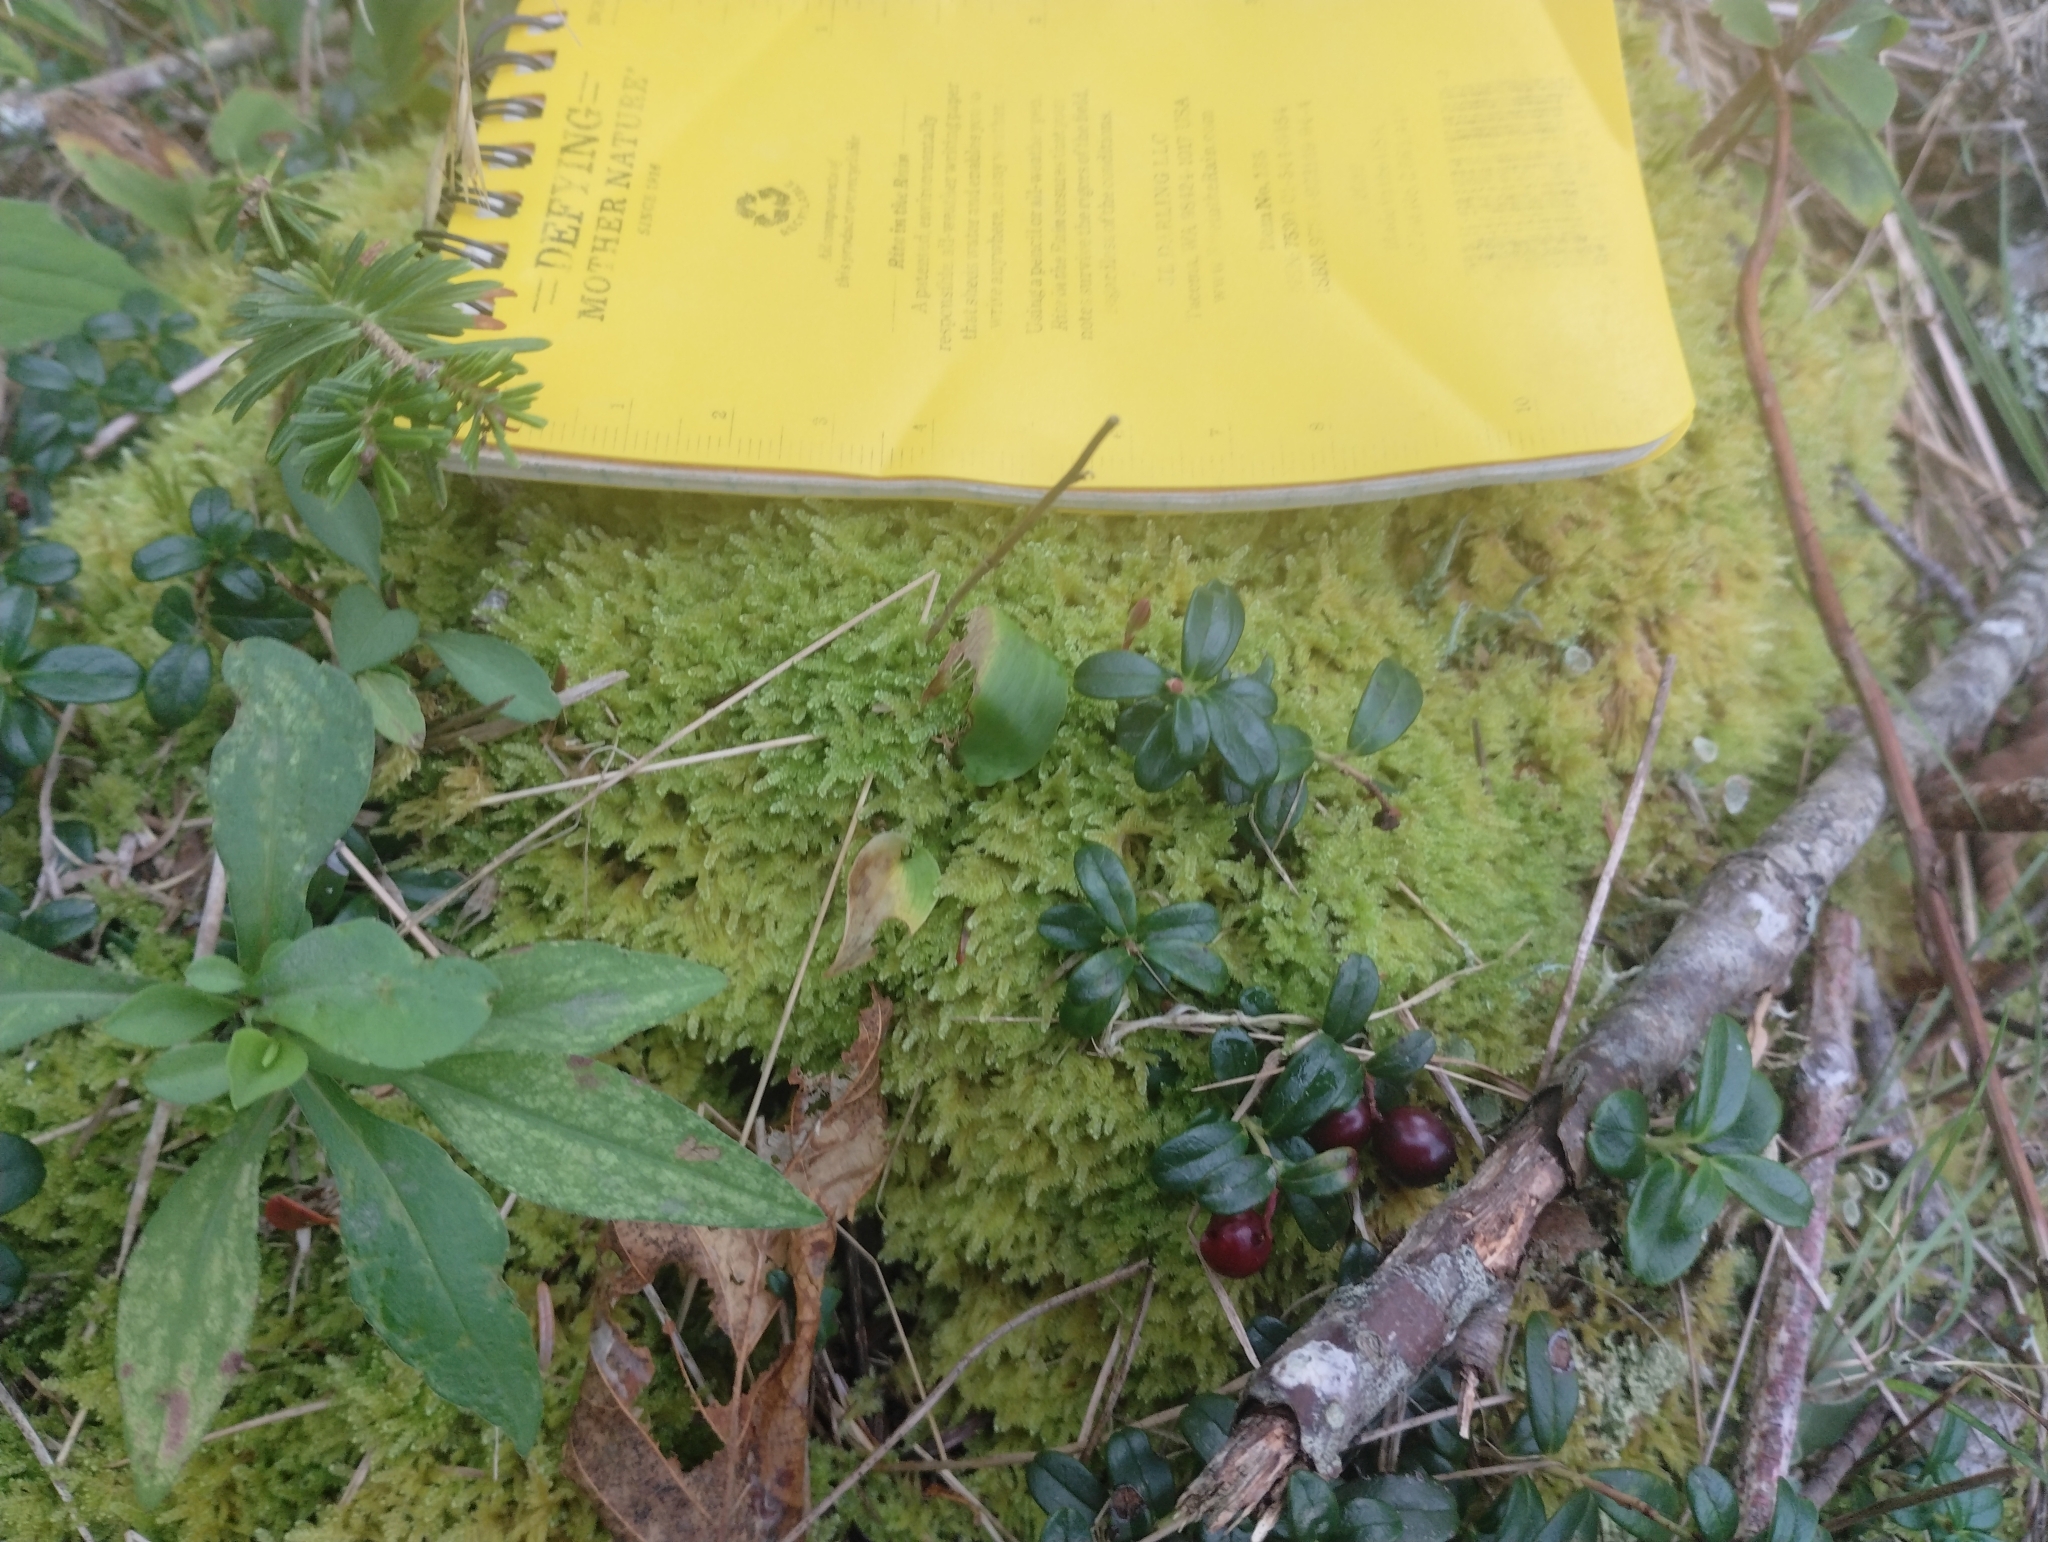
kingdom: Plantae
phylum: Tracheophyta
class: Magnoliopsida
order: Ericales
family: Ericaceae
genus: Vaccinium
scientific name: Vaccinium vitis-idaea
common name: Cowberry
